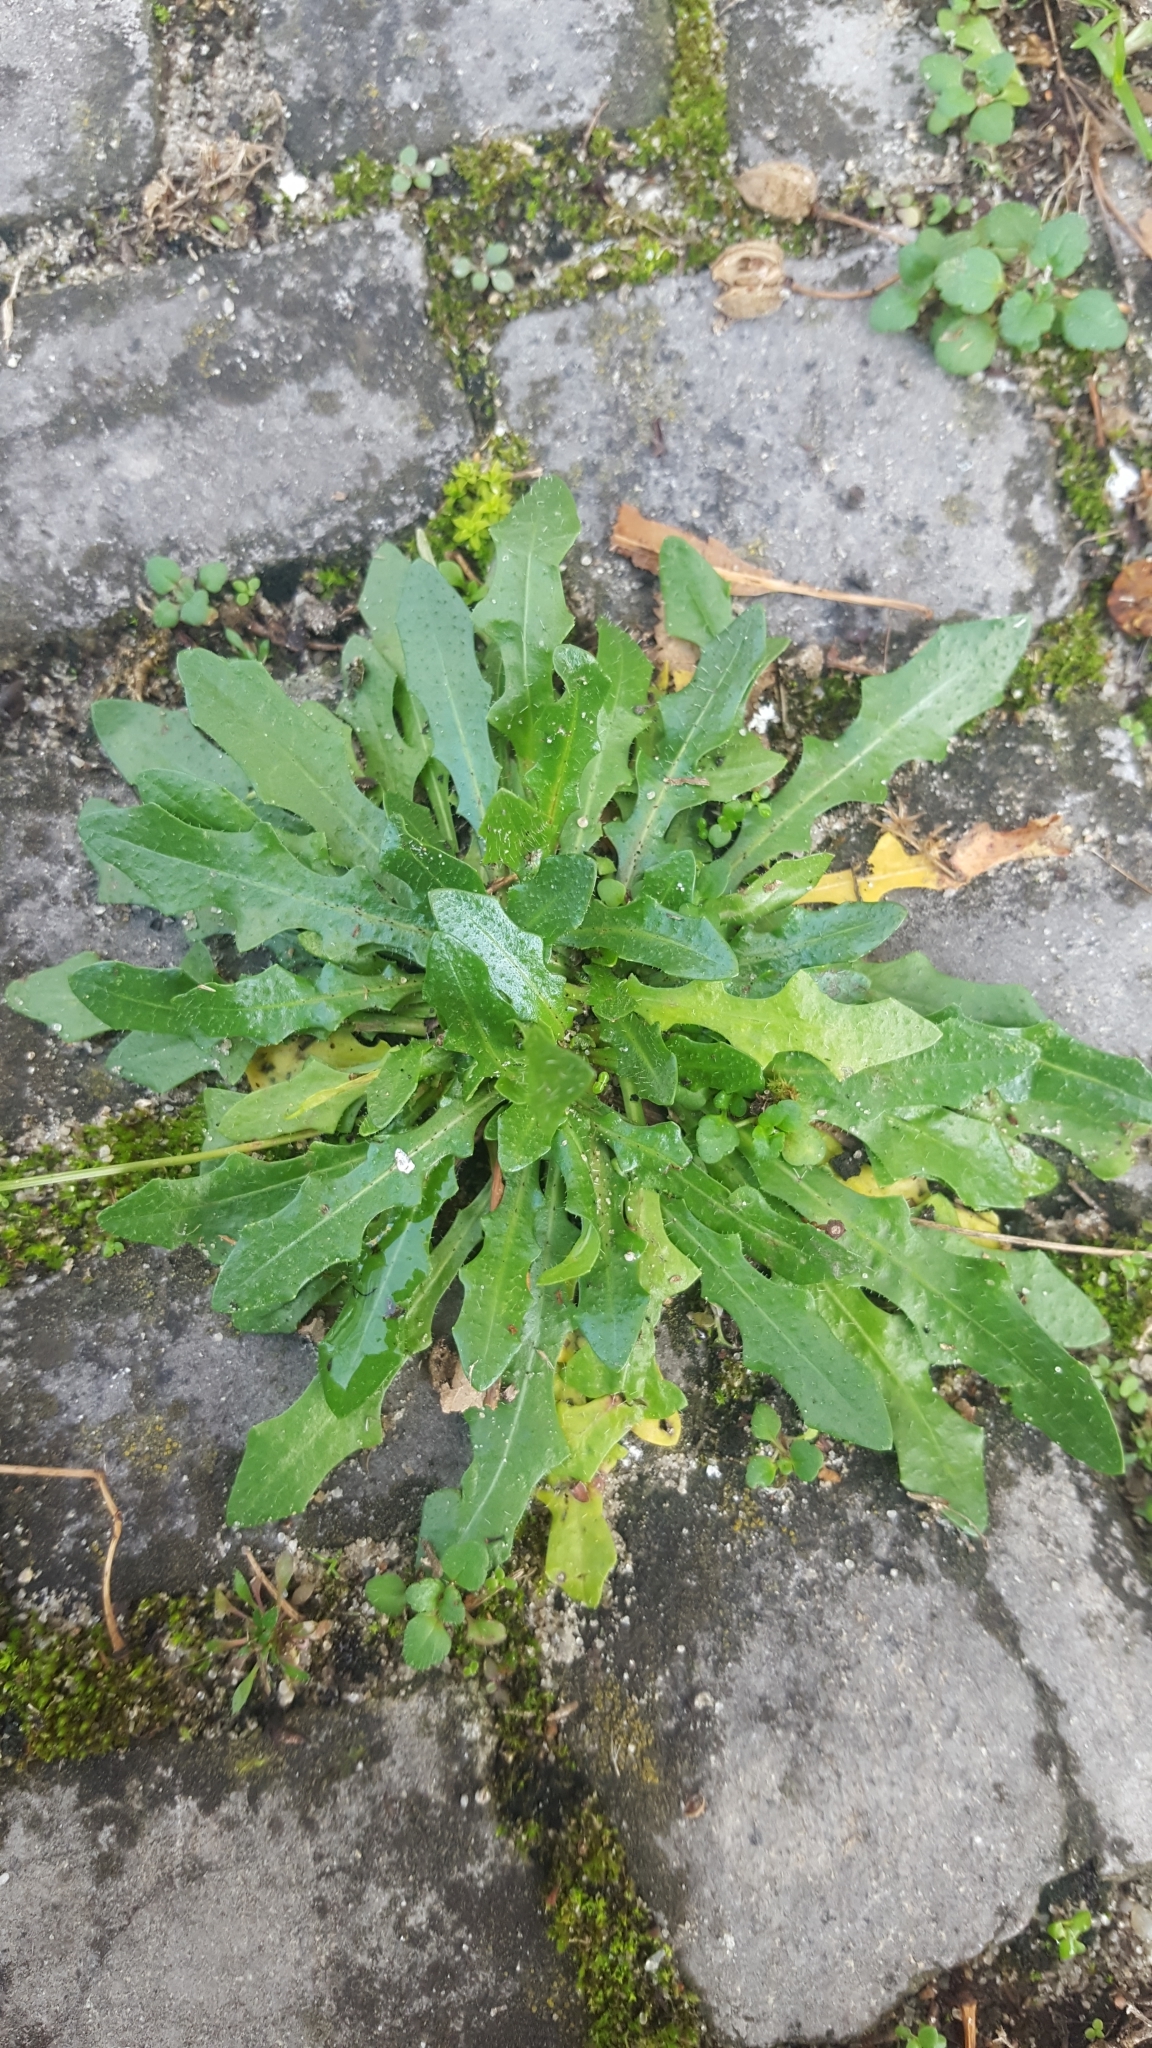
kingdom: Plantae
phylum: Tracheophyta
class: Magnoliopsida
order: Asterales
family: Asteraceae
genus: Hypochaeris
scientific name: Hypochaeris radicata
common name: Flatweed
